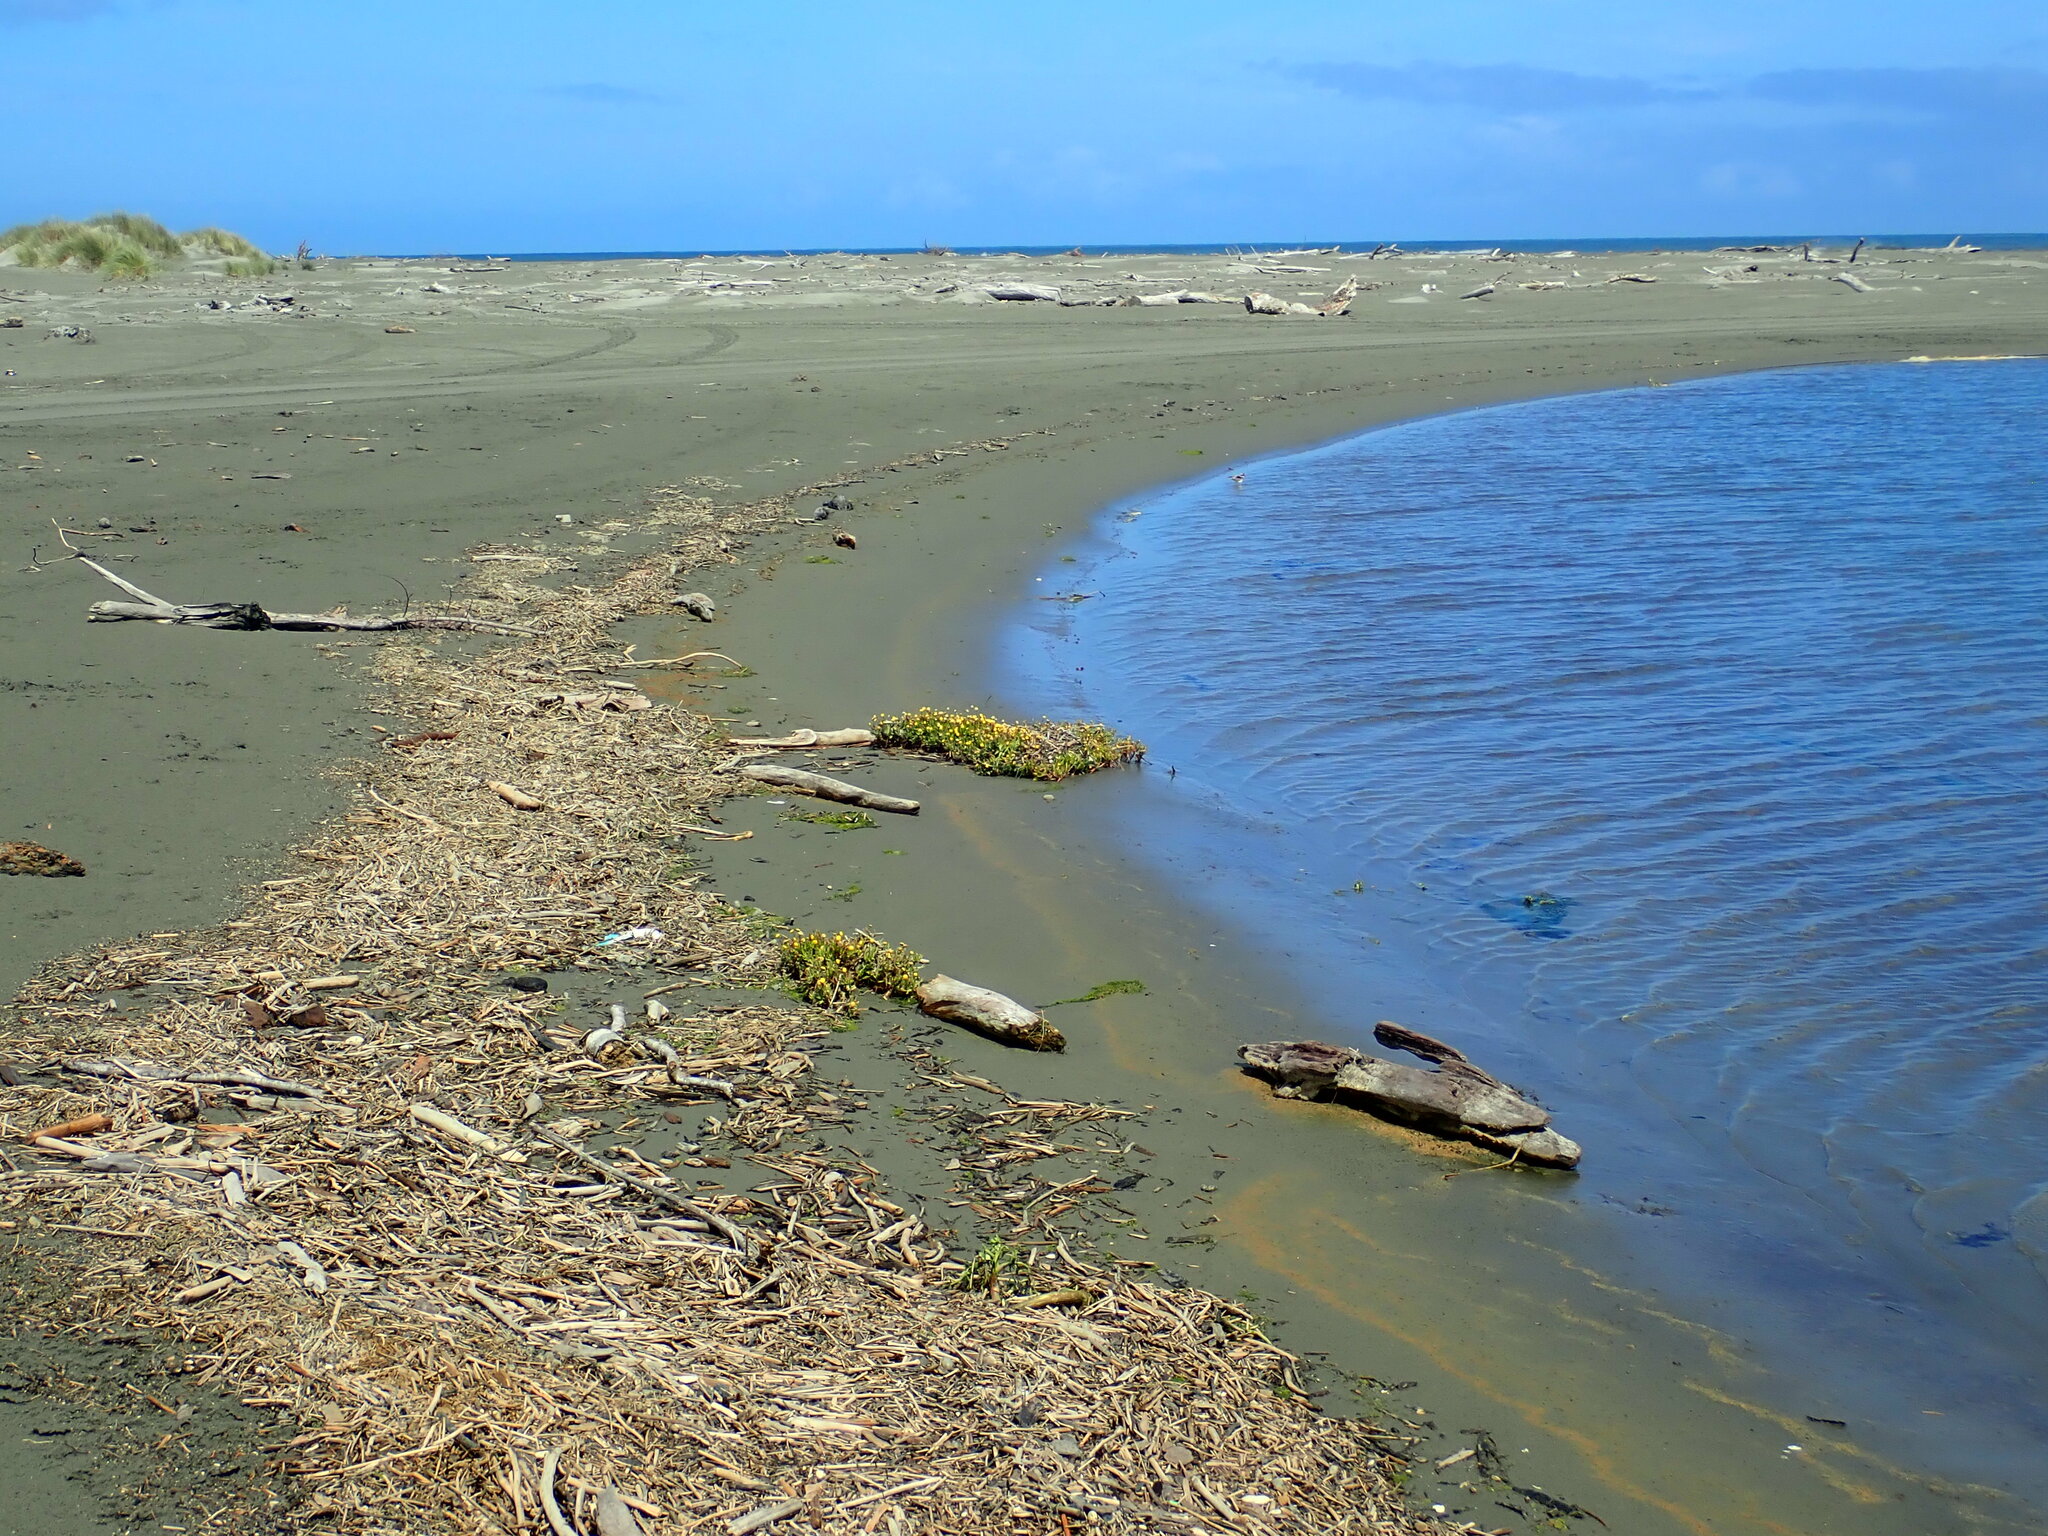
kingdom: Animalia
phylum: Chordata
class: Aves
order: Charadriiformes
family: Charadriidae
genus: Elseyornis
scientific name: Elseyornis melanops
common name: Black-fronted dotterel
